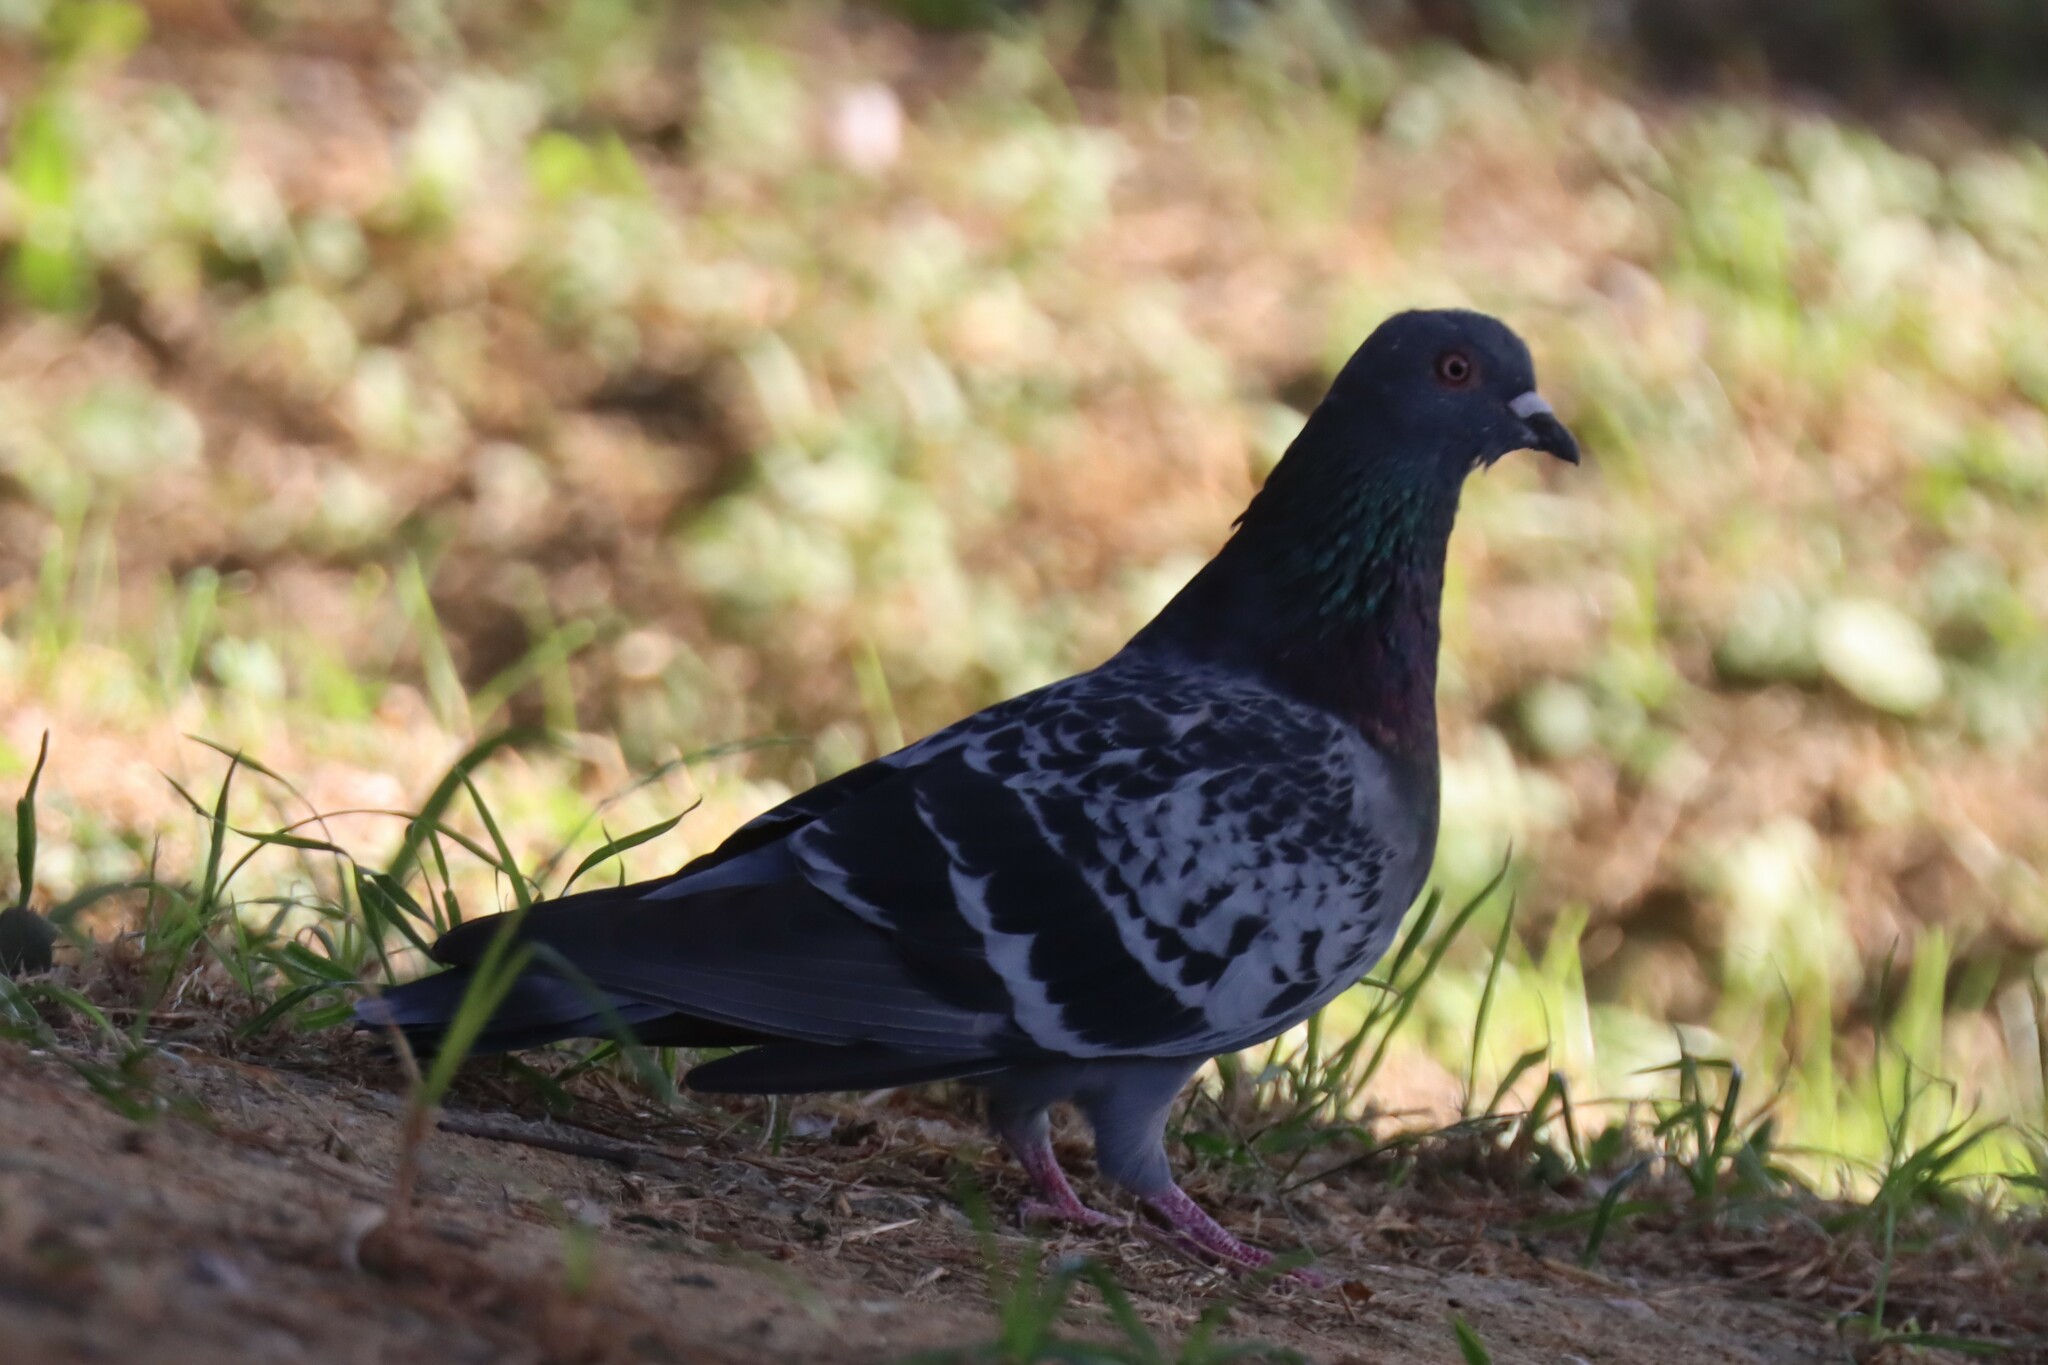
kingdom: Animalia
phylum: Chordata
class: Aves
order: Columbiformes
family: Columbidae
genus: Columba
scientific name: Columba livia
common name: Rock pigeon
